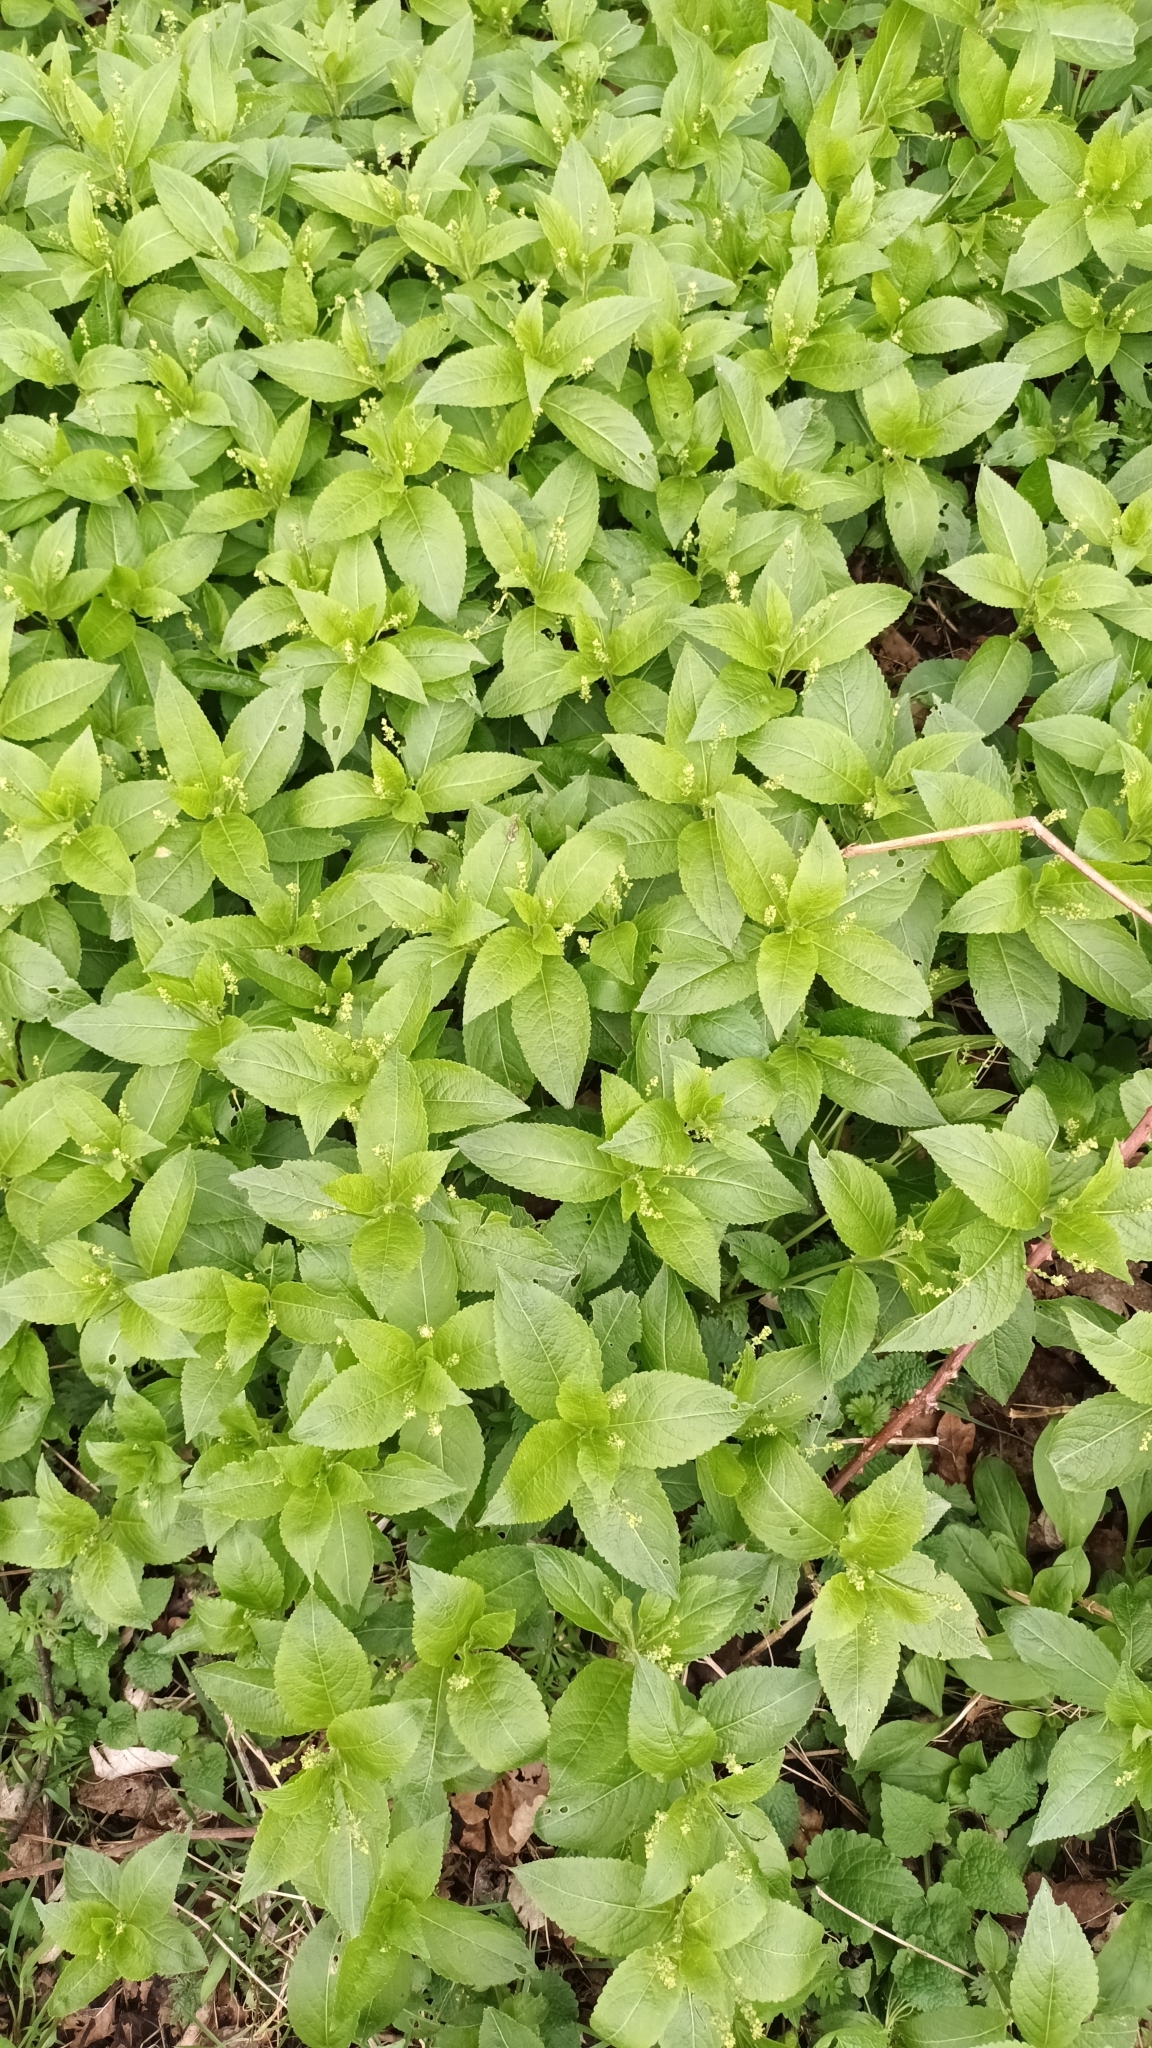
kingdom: Plantae
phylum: Tracheophyta
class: Magnoliopsida
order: Malpighiales
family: Euphorbiaceae
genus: Mercurialis
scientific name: Mercurialis perennis
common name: Dog mercury
